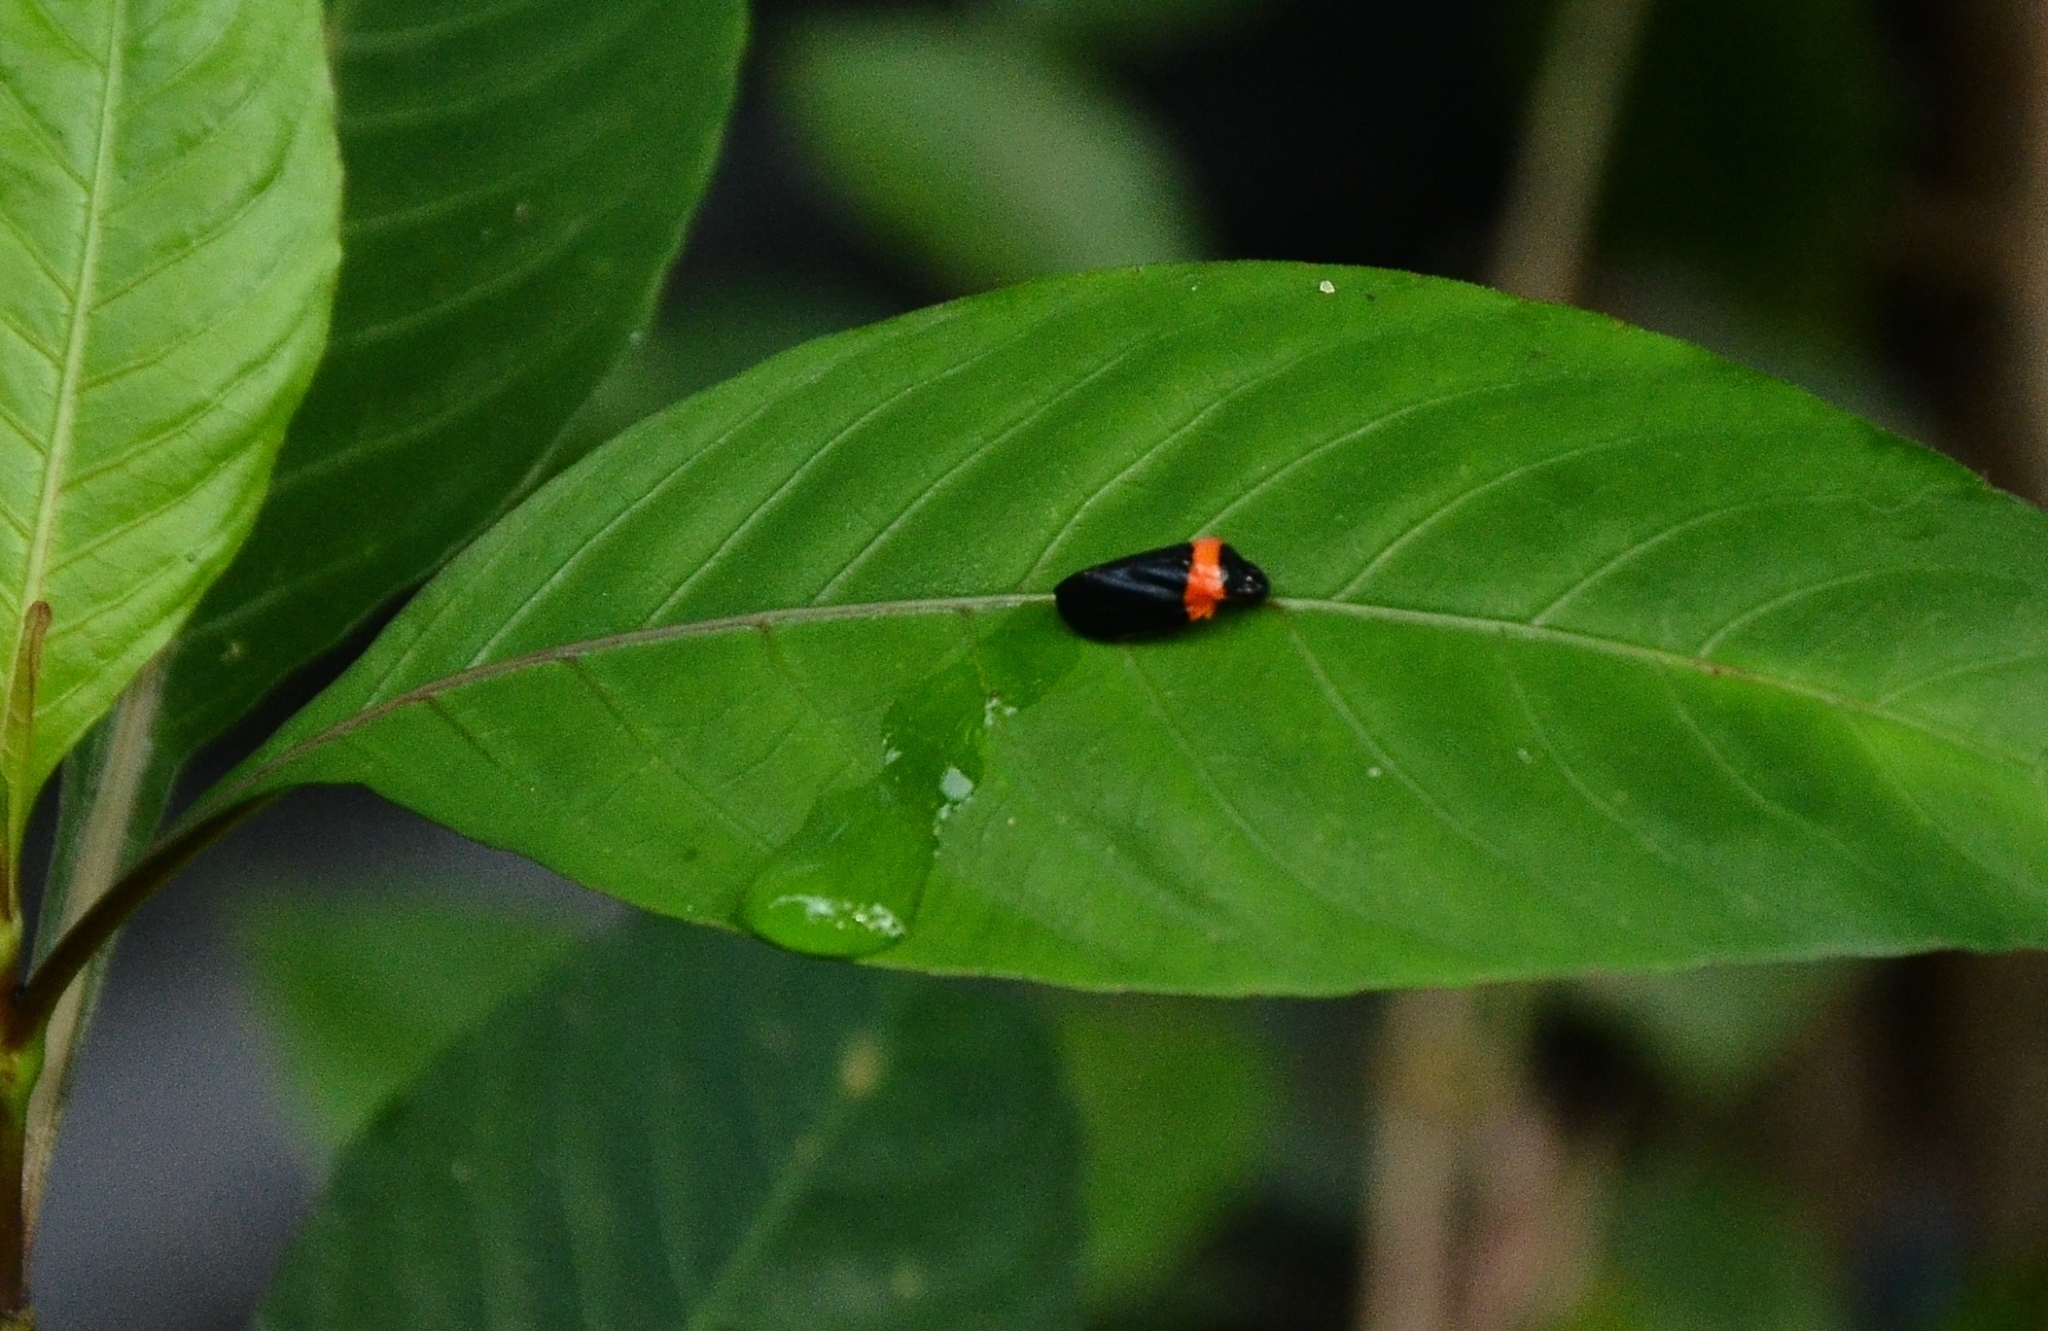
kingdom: Animalia
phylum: Arthropoda
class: Insecta
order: Hemiptera
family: Cercopidae
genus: Phymatostetha
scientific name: Phymatostetha deschampsi
